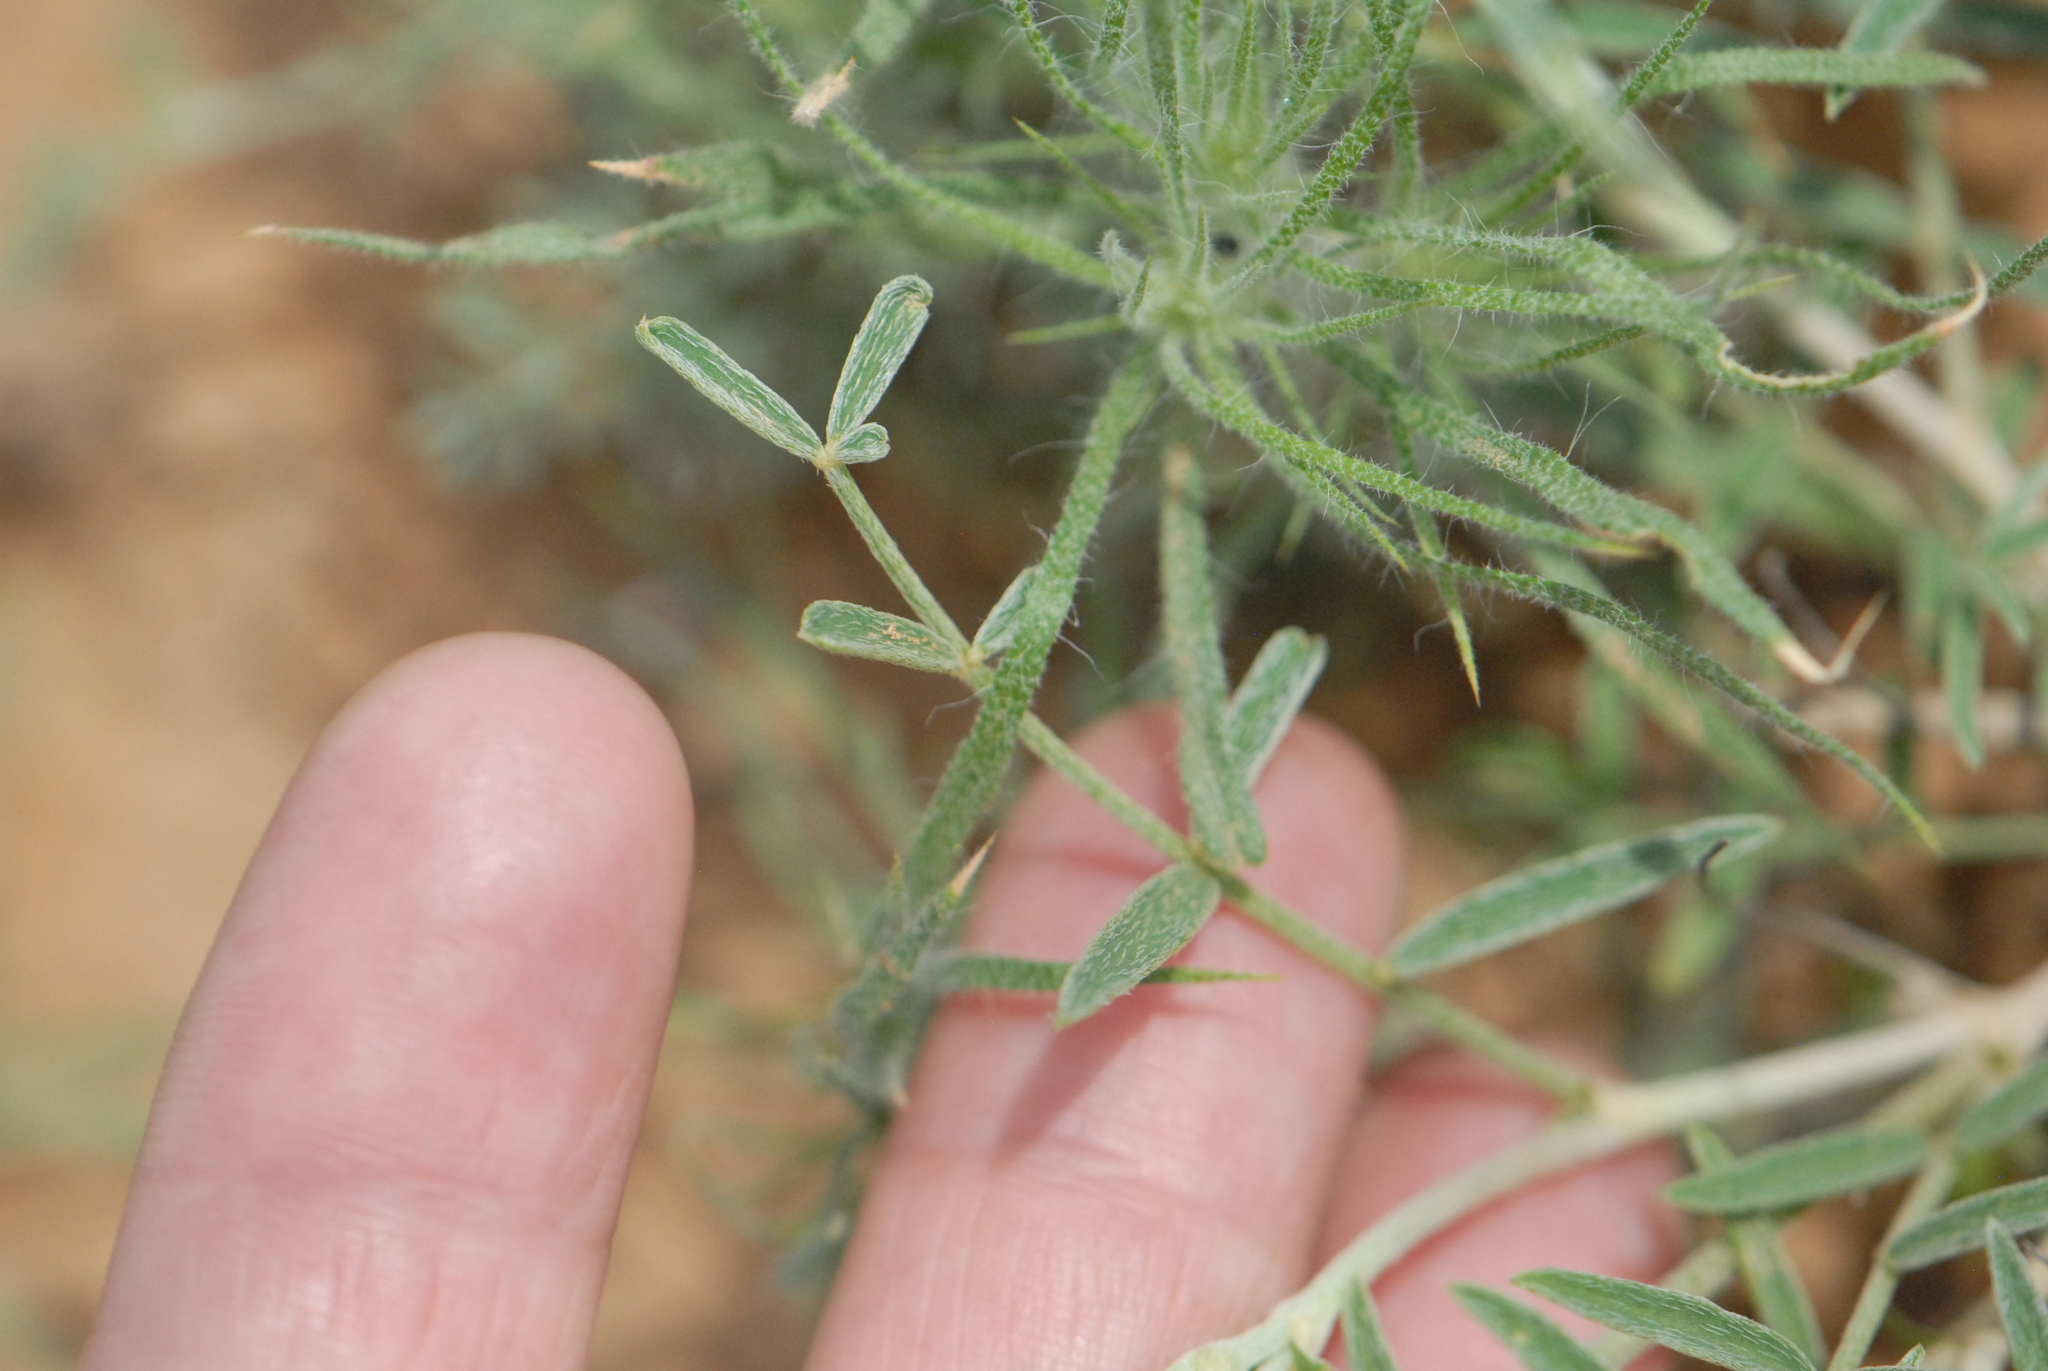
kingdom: Plantae
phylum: Tracheophyta
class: Magnoliopsida
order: Fabales
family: Fabaceae
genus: Astragalus
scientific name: Astragalus skvortsovii
